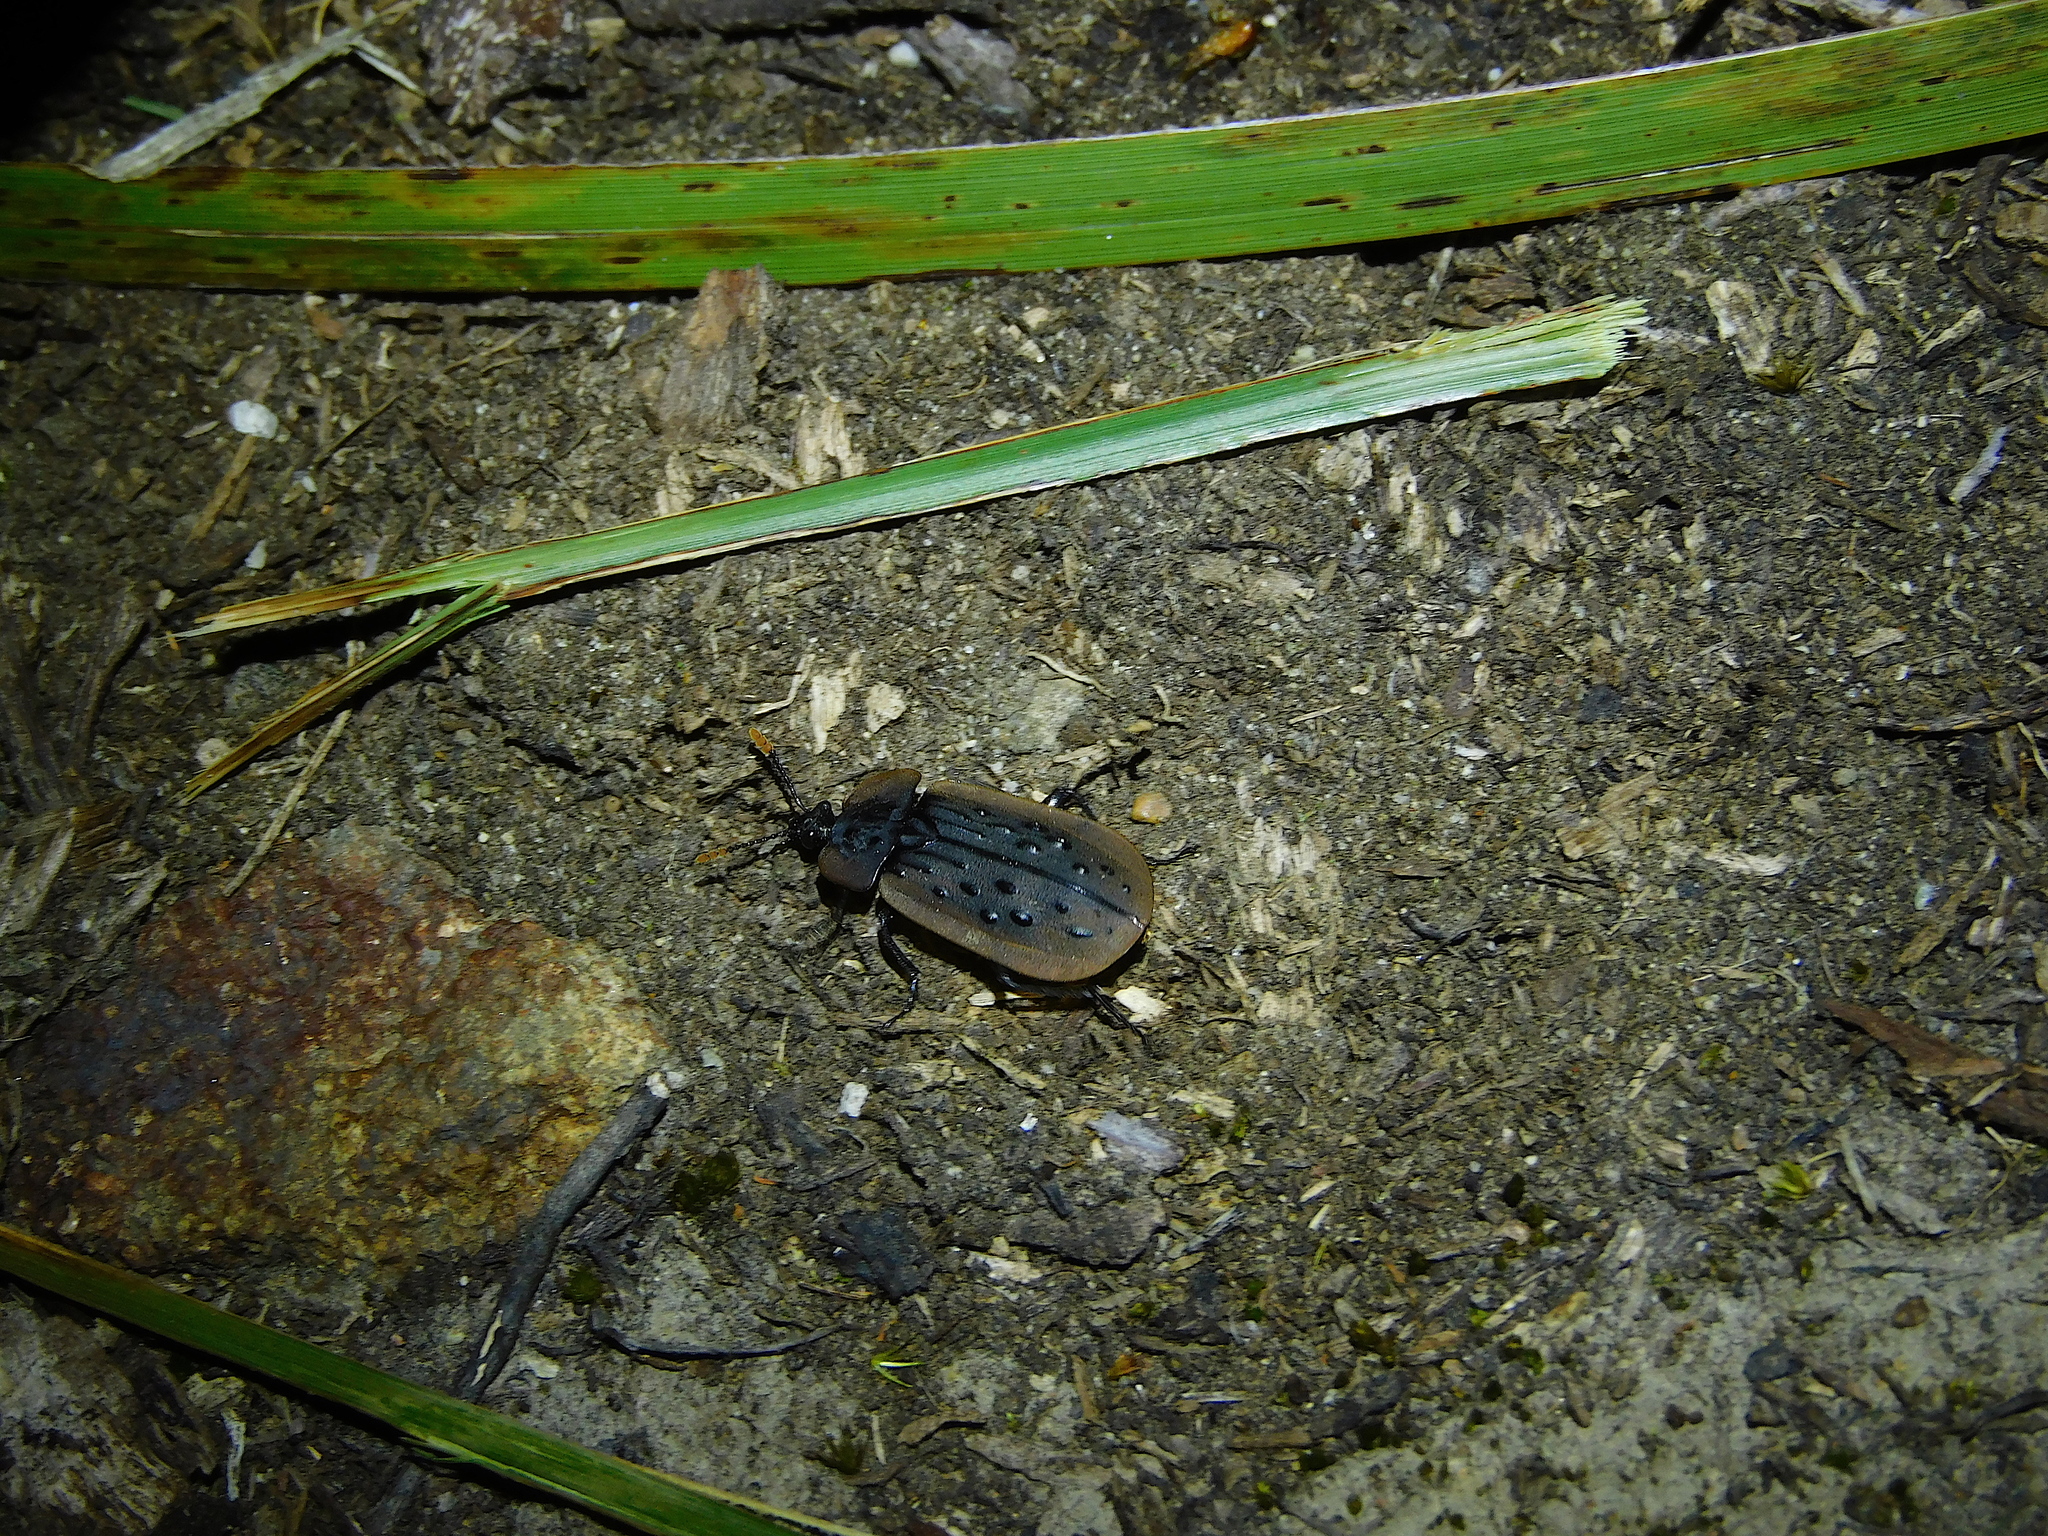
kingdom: Animalia
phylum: Arthropoda
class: Insecta
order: Coleoptera
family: Staphylinidae
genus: Ptomaphila
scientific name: Ptomaphila lacrymosa
